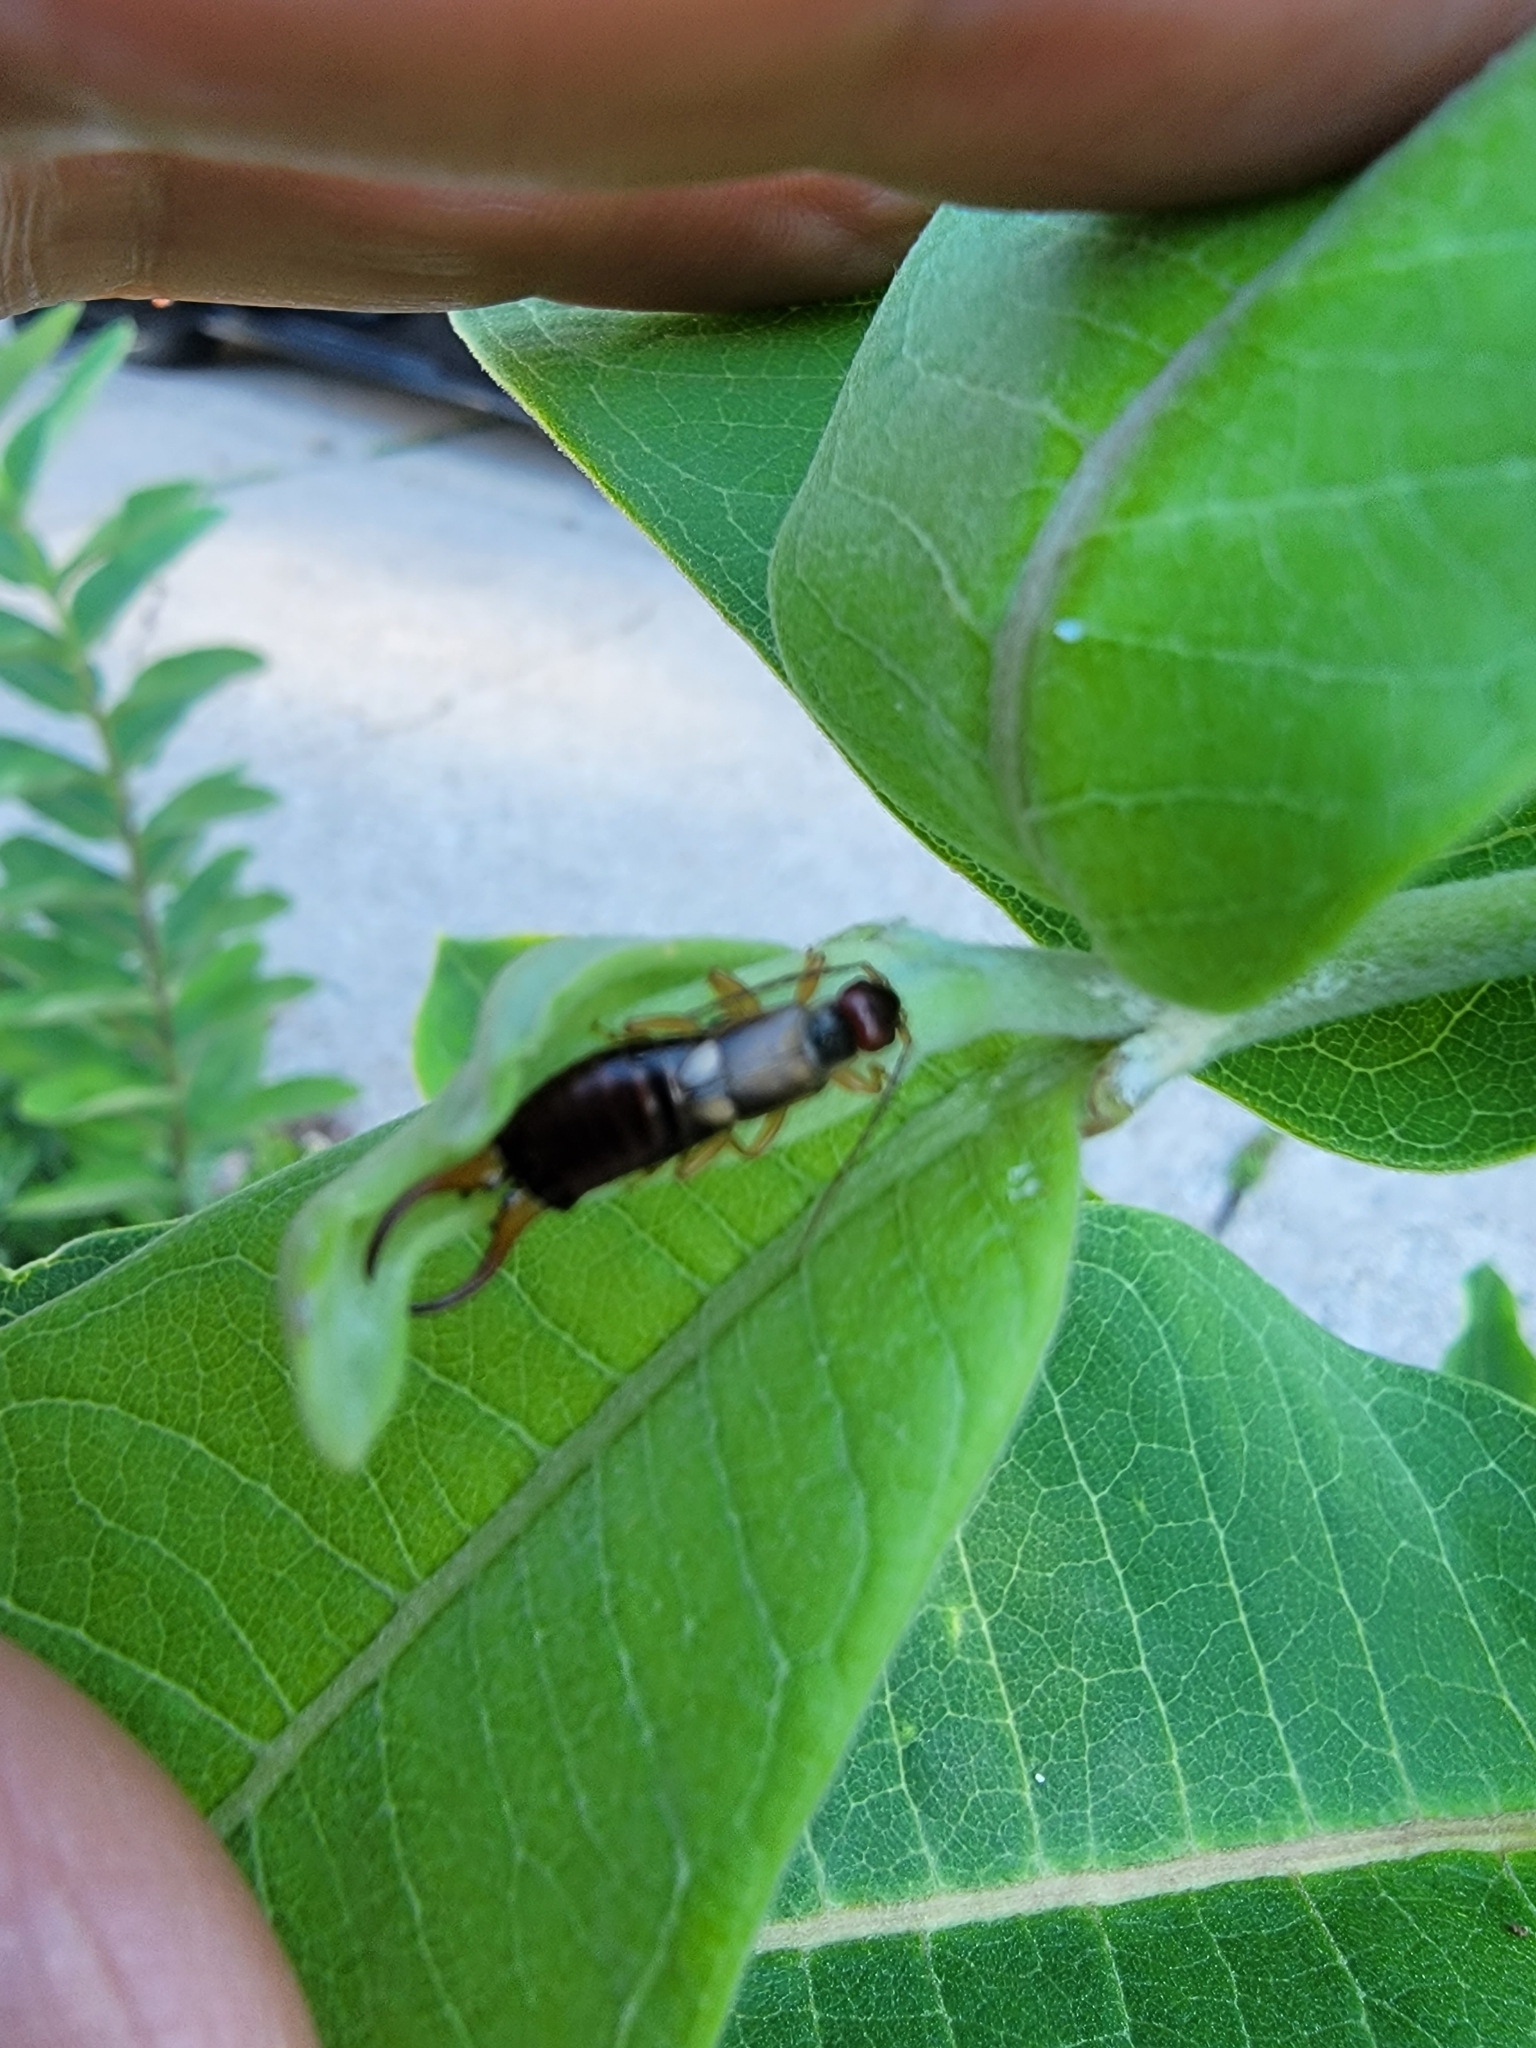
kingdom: Animalia
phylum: Arthropoda
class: Insecta
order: Dermaptera
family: Forficulidae
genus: Forficula
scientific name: Forficula
